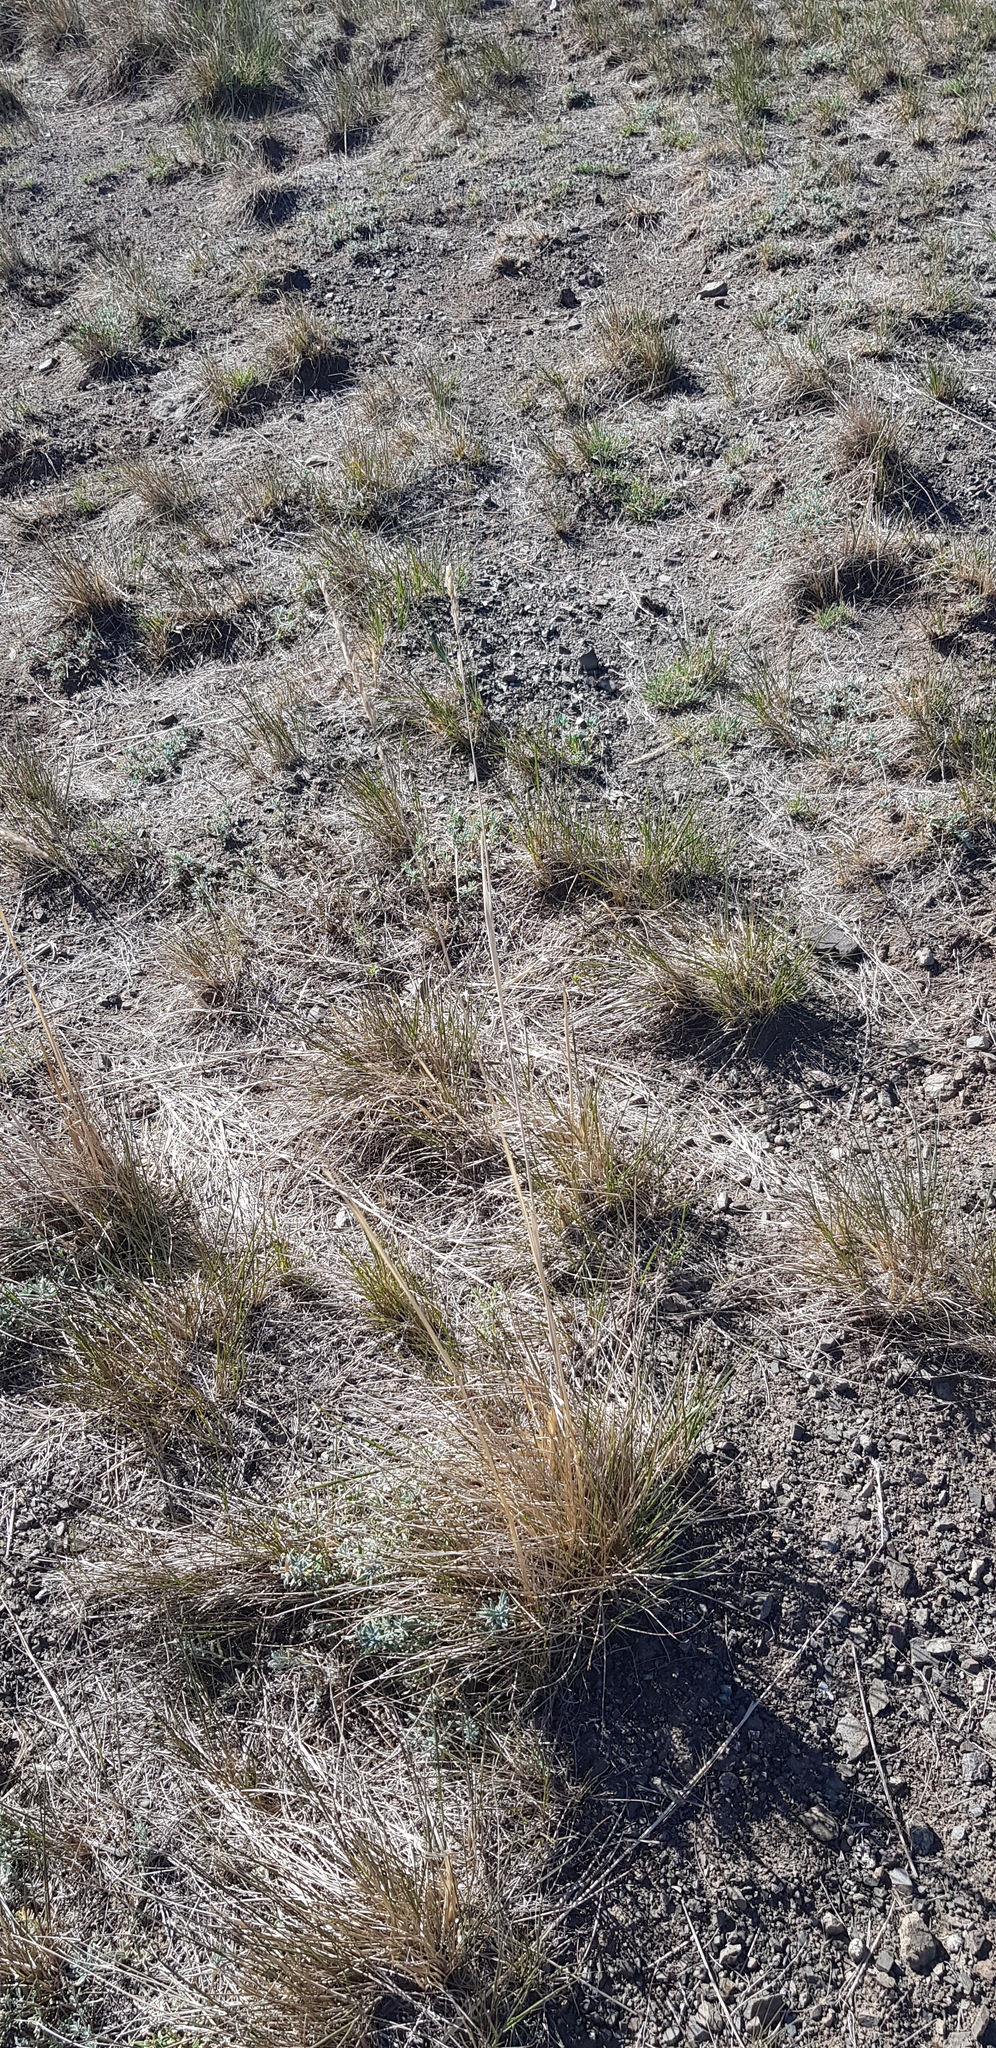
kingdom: Plantae
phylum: Tracheophyta
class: Liliopsida
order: Poales
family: Poaceae
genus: Neotrinia
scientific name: Neotrinia splendens
